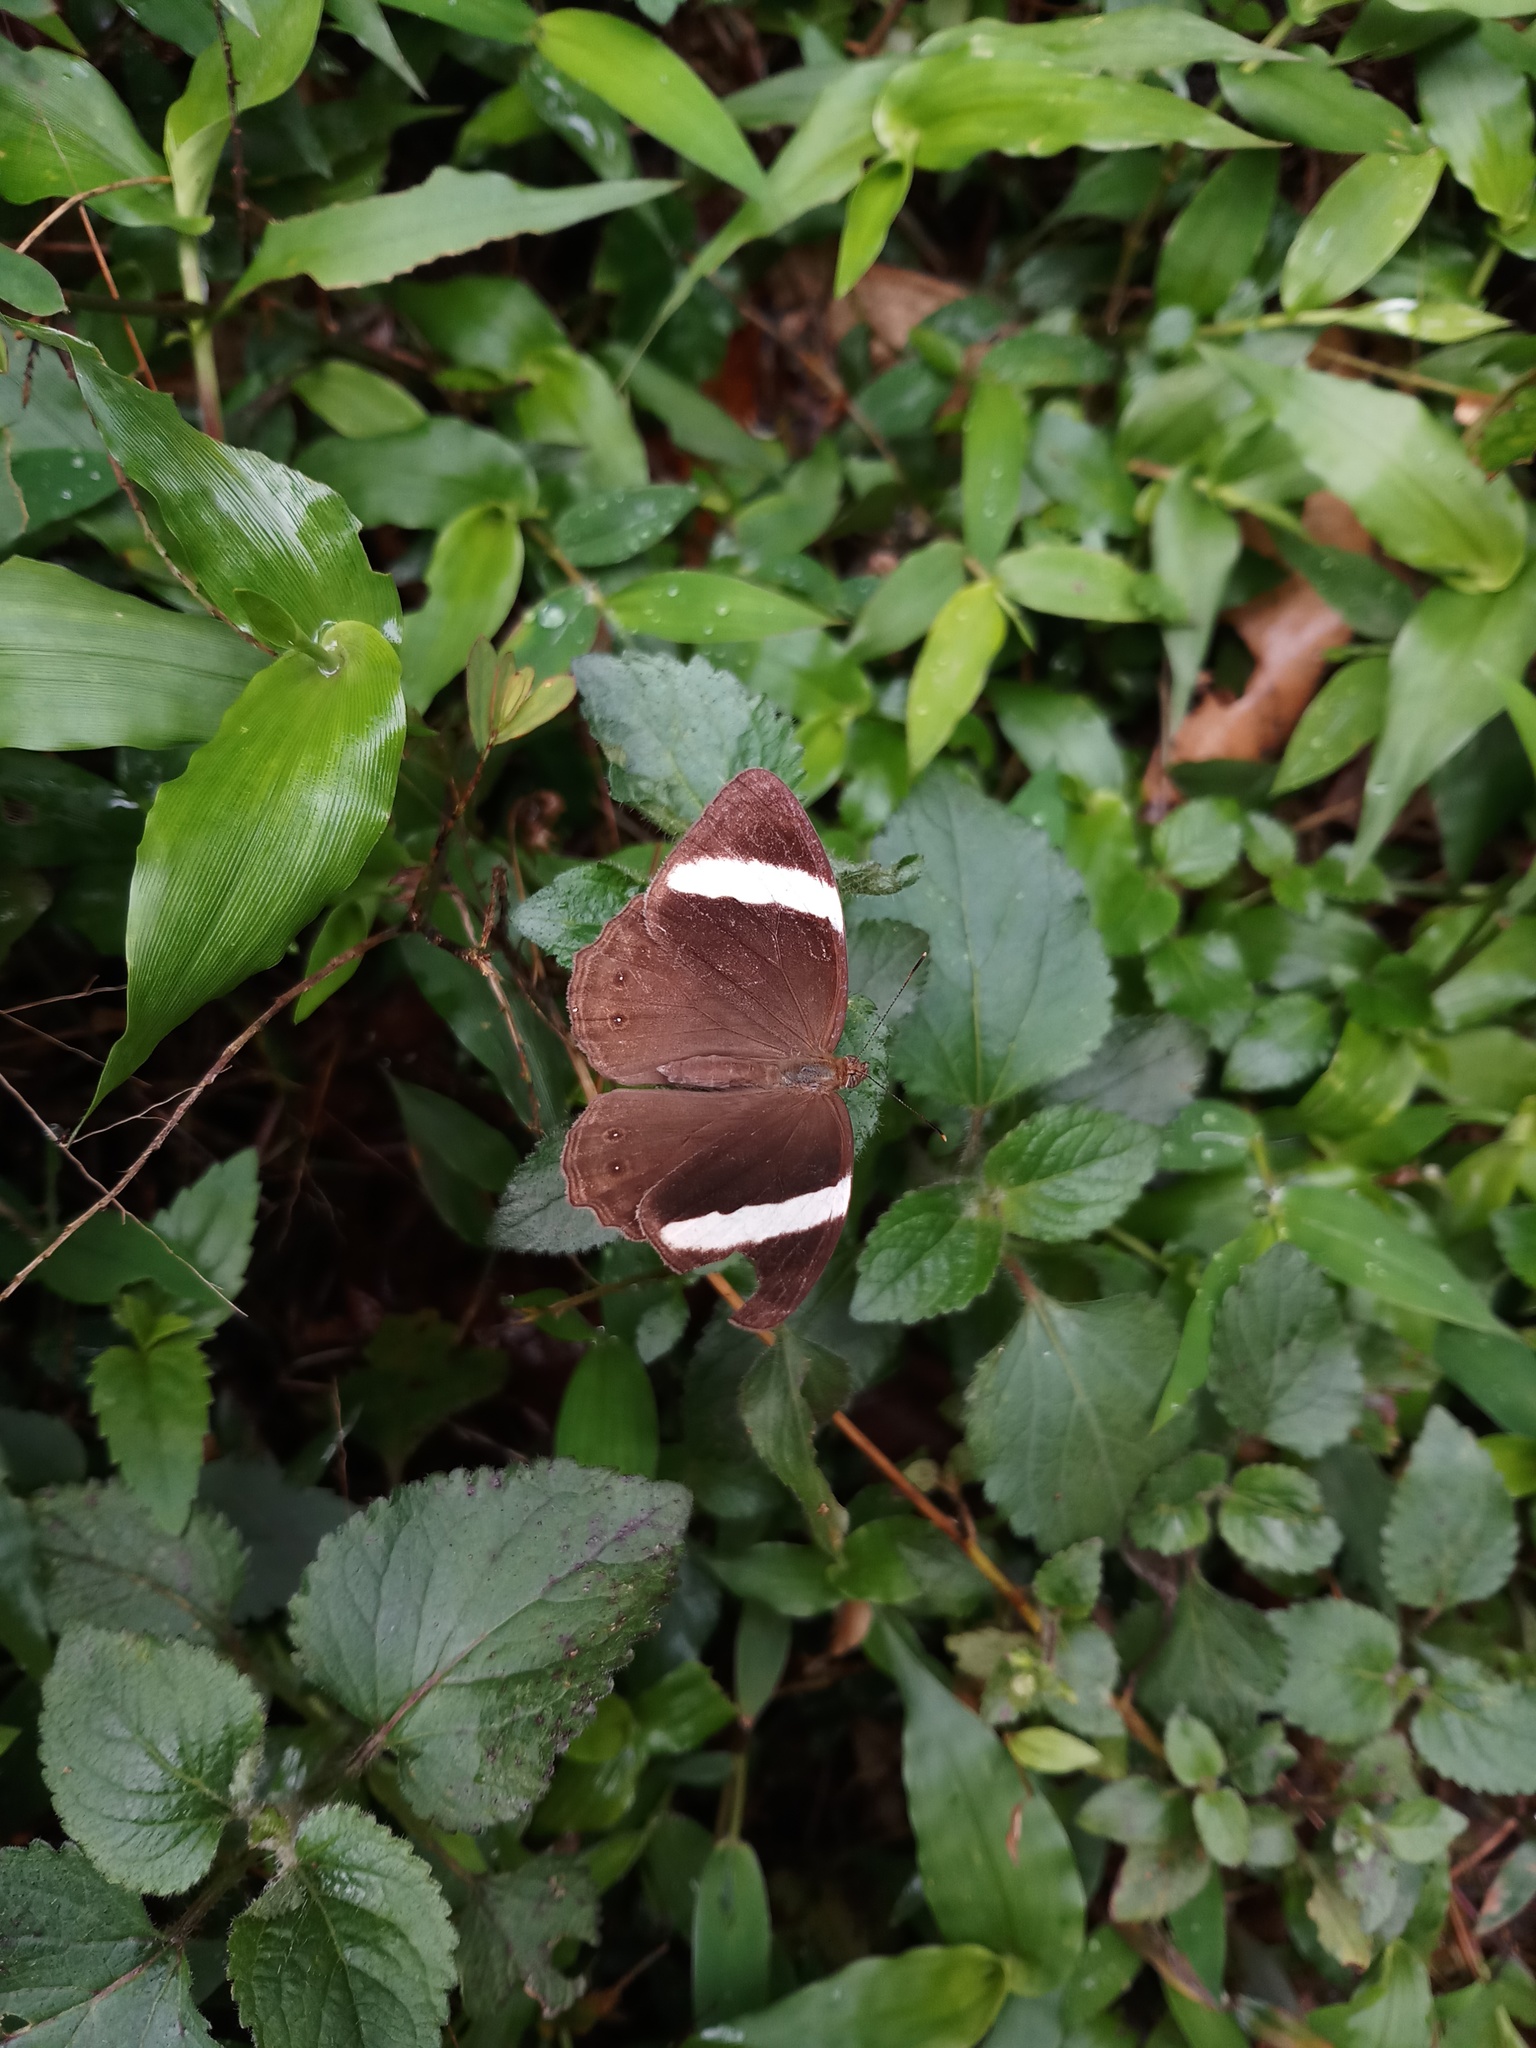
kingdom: Animalia
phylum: Arthropoda
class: Insecta
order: Lepidoptera
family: Lycaenidae
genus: Abisara
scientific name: Abisara fylla
